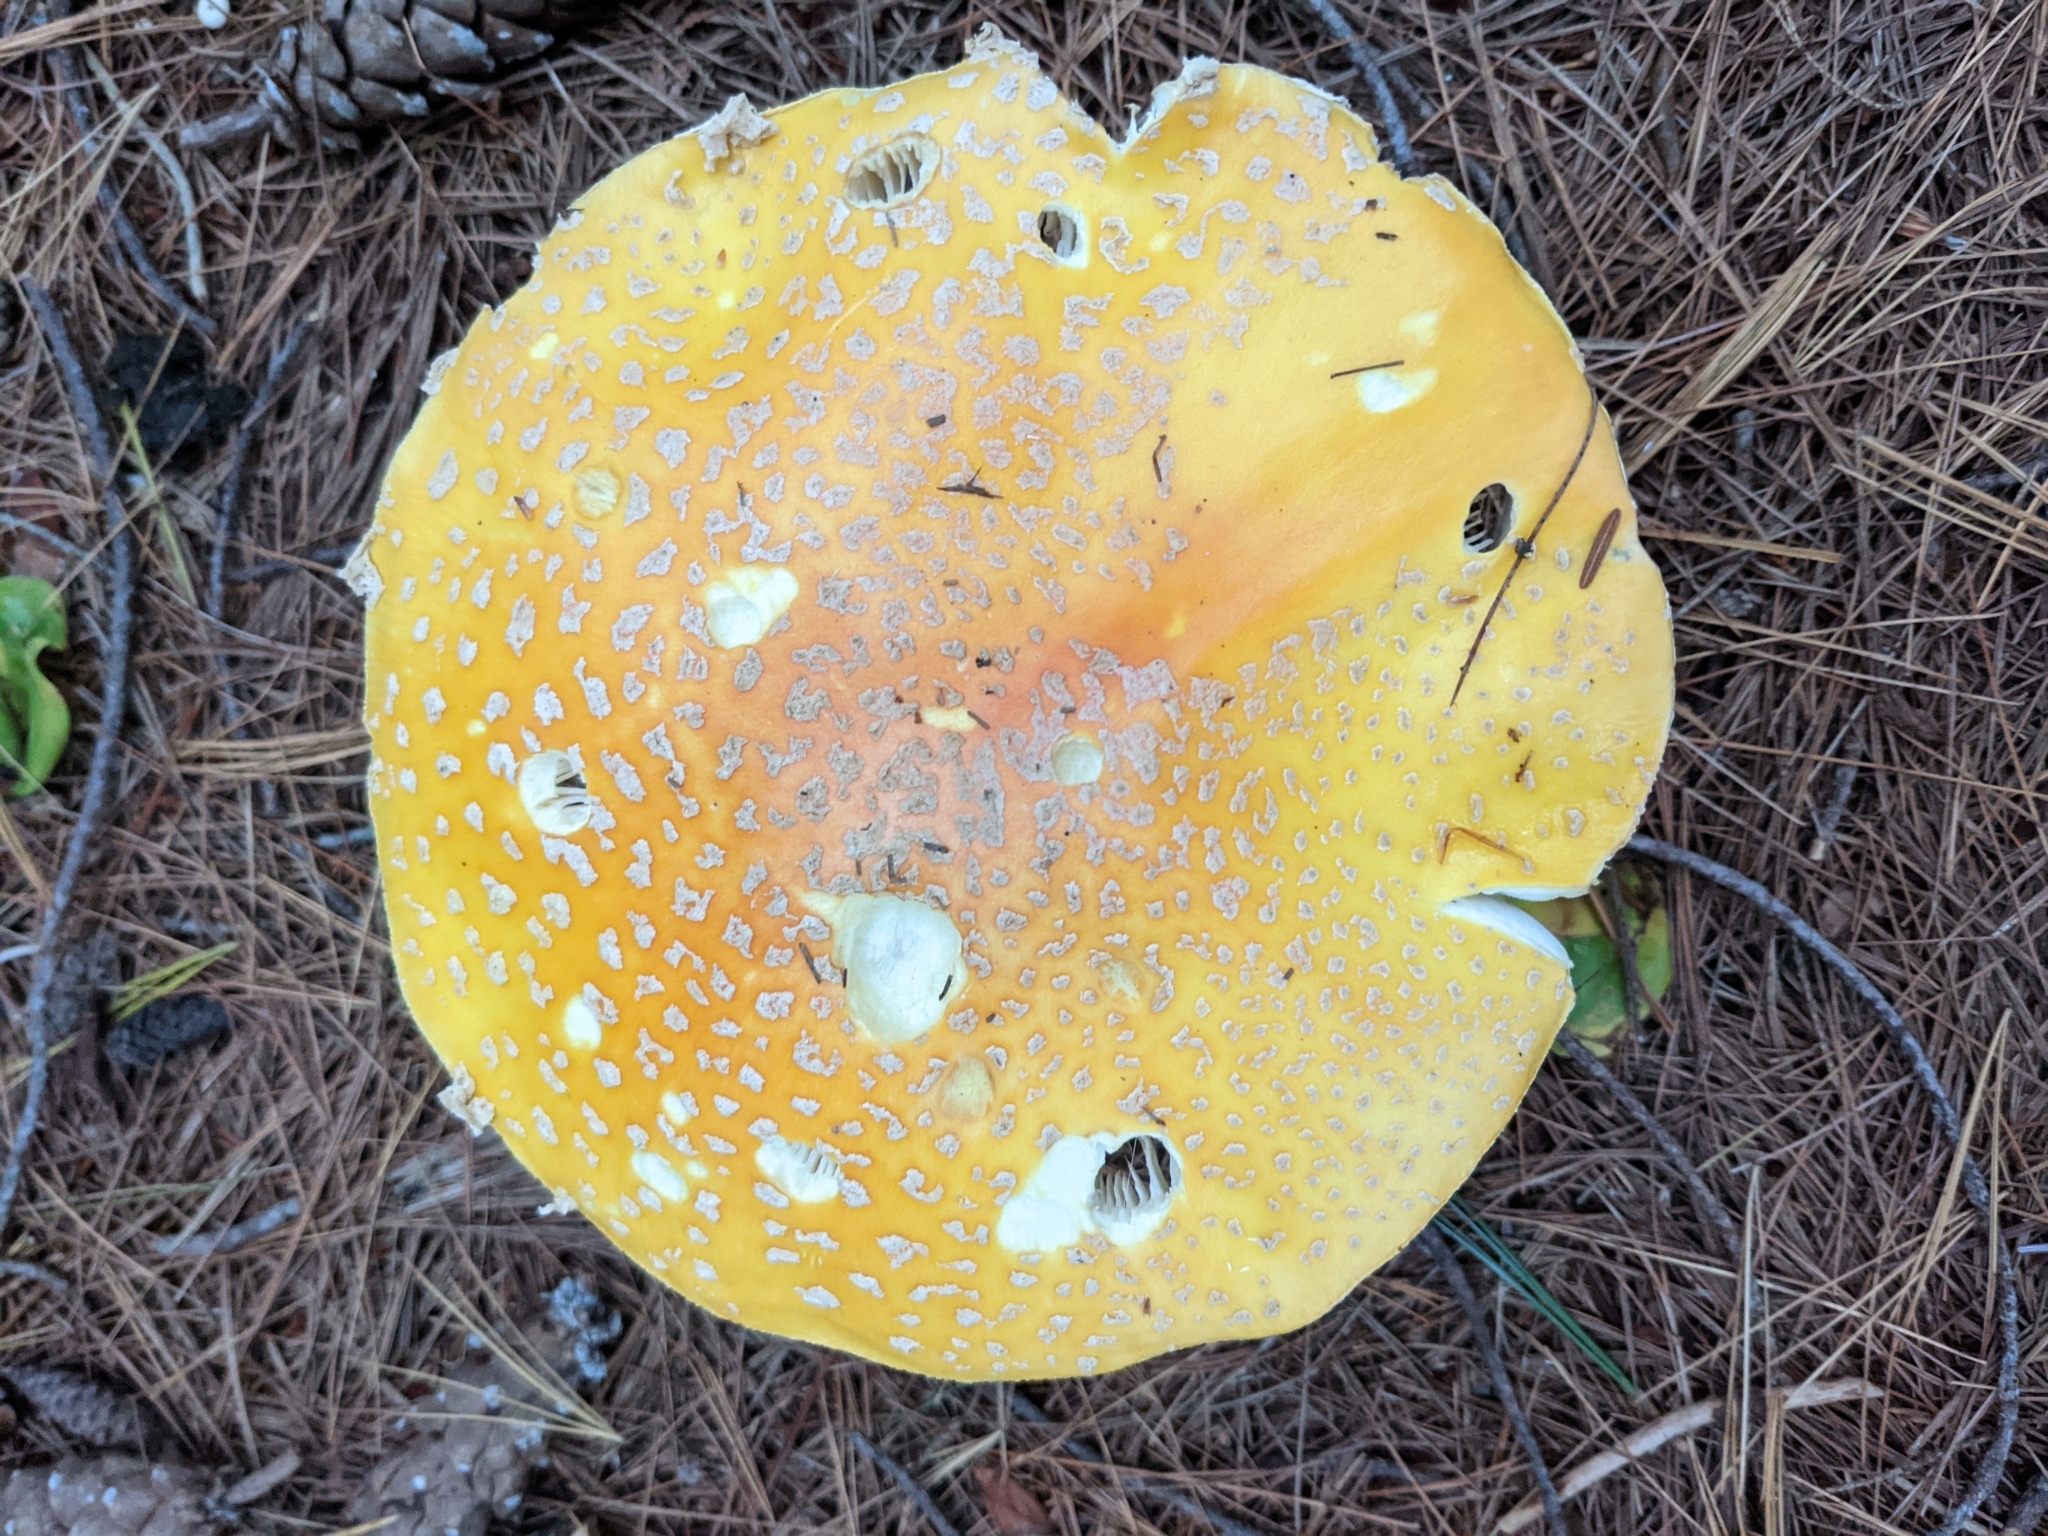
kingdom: Fungi
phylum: Basidiomycota
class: Agaricomycetes
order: Agaricales
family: Amanitaceae
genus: Amanita
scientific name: Amanita muscaria
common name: Fly agaric
